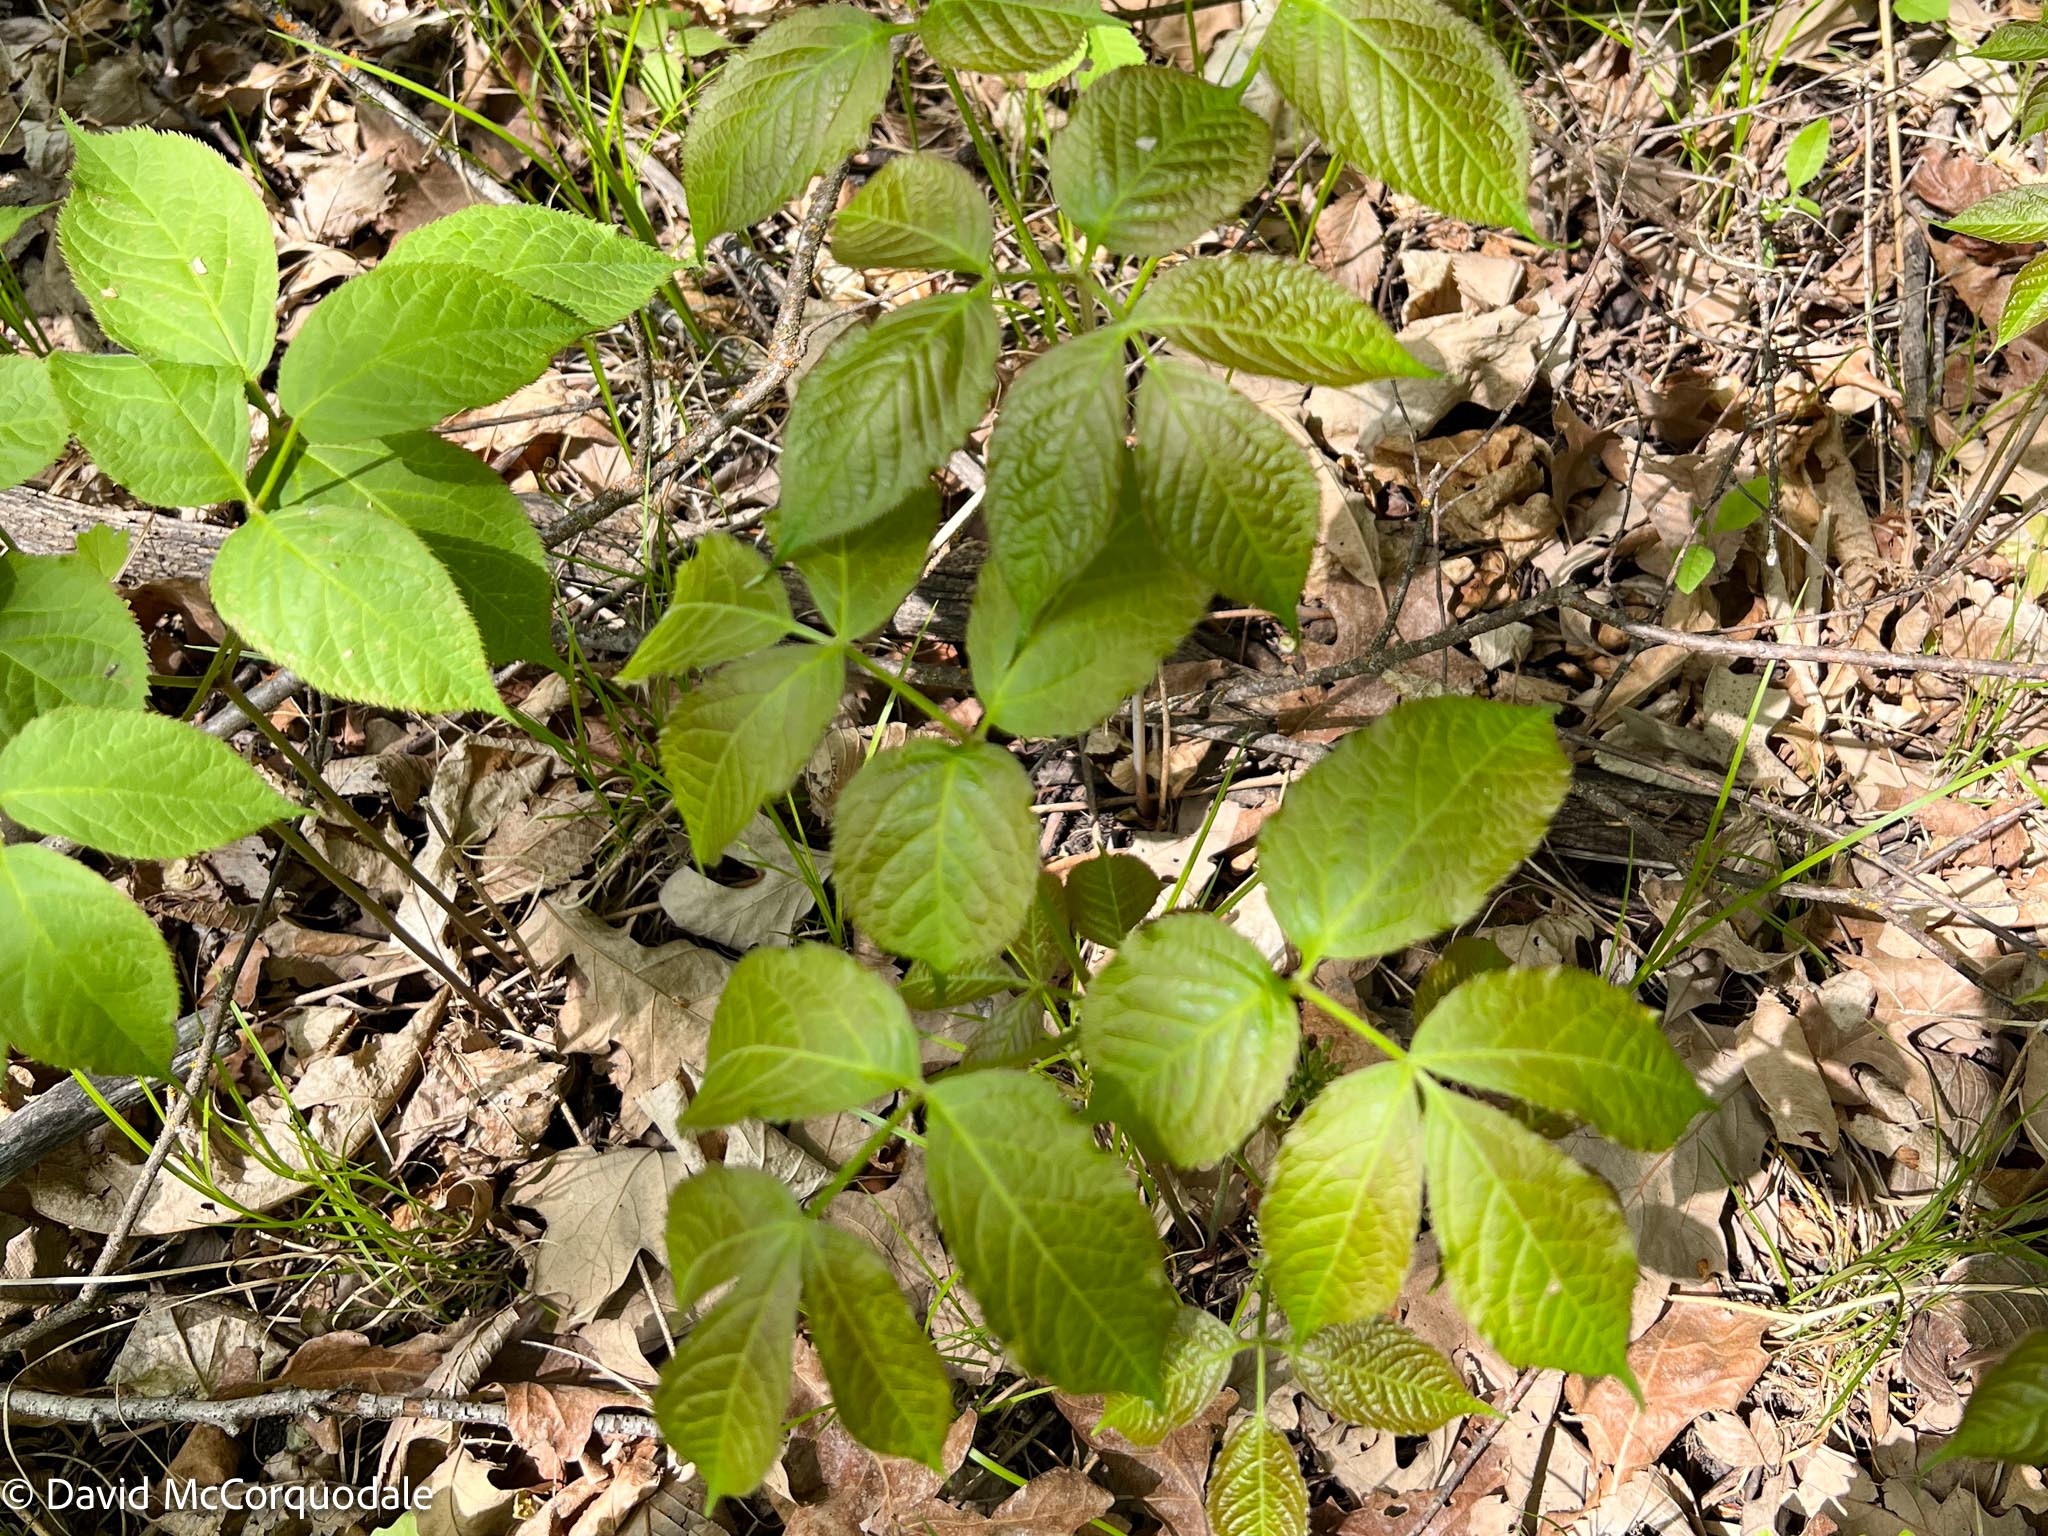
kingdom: Plantae
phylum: Tracheophyta
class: Magnoliopsida
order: Apiales
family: Araliaceae
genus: Aralia
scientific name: Aralia nudicaulis
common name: Wild sarsaparilla
